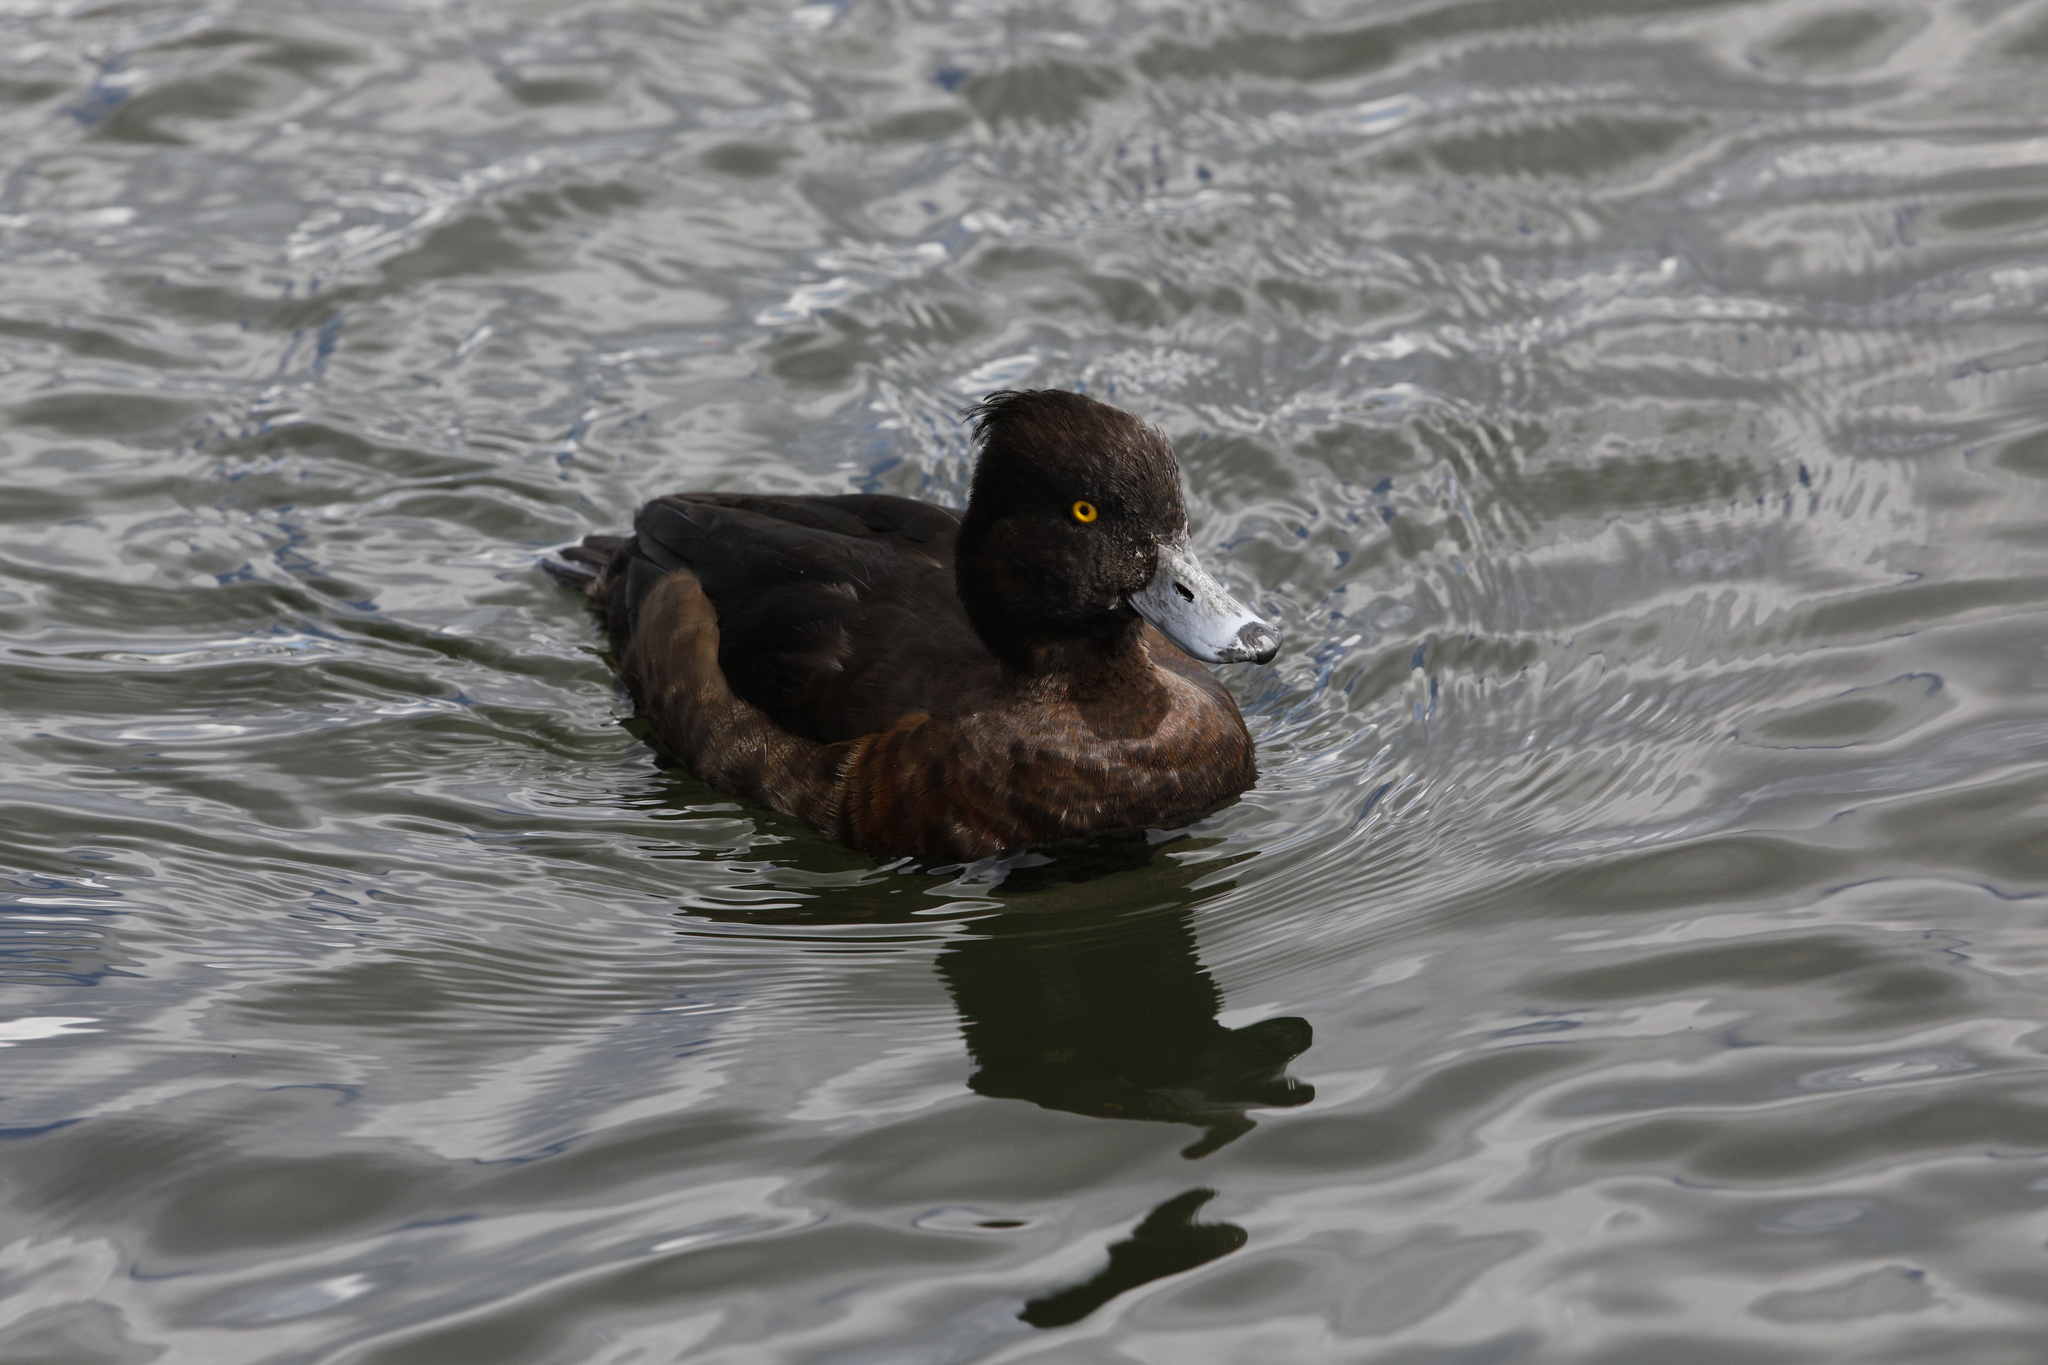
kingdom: Animalia
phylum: Chordata
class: Aves
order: Anseriformes
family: Anatidae
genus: Aythya
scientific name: Aythya fuligula
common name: Tufted duck
